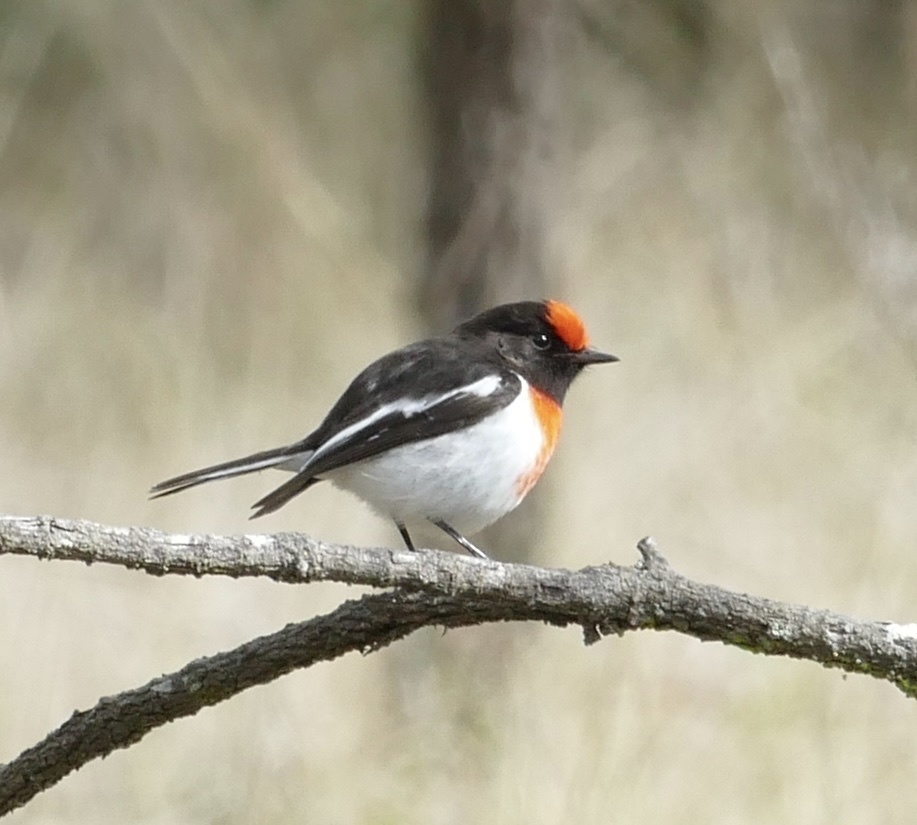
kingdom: Animalia
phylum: Chordata
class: Aves
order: Passeriformes
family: Petroicidae
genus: Petroica
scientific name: Petroica goodenovii
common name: Red-capped robin
